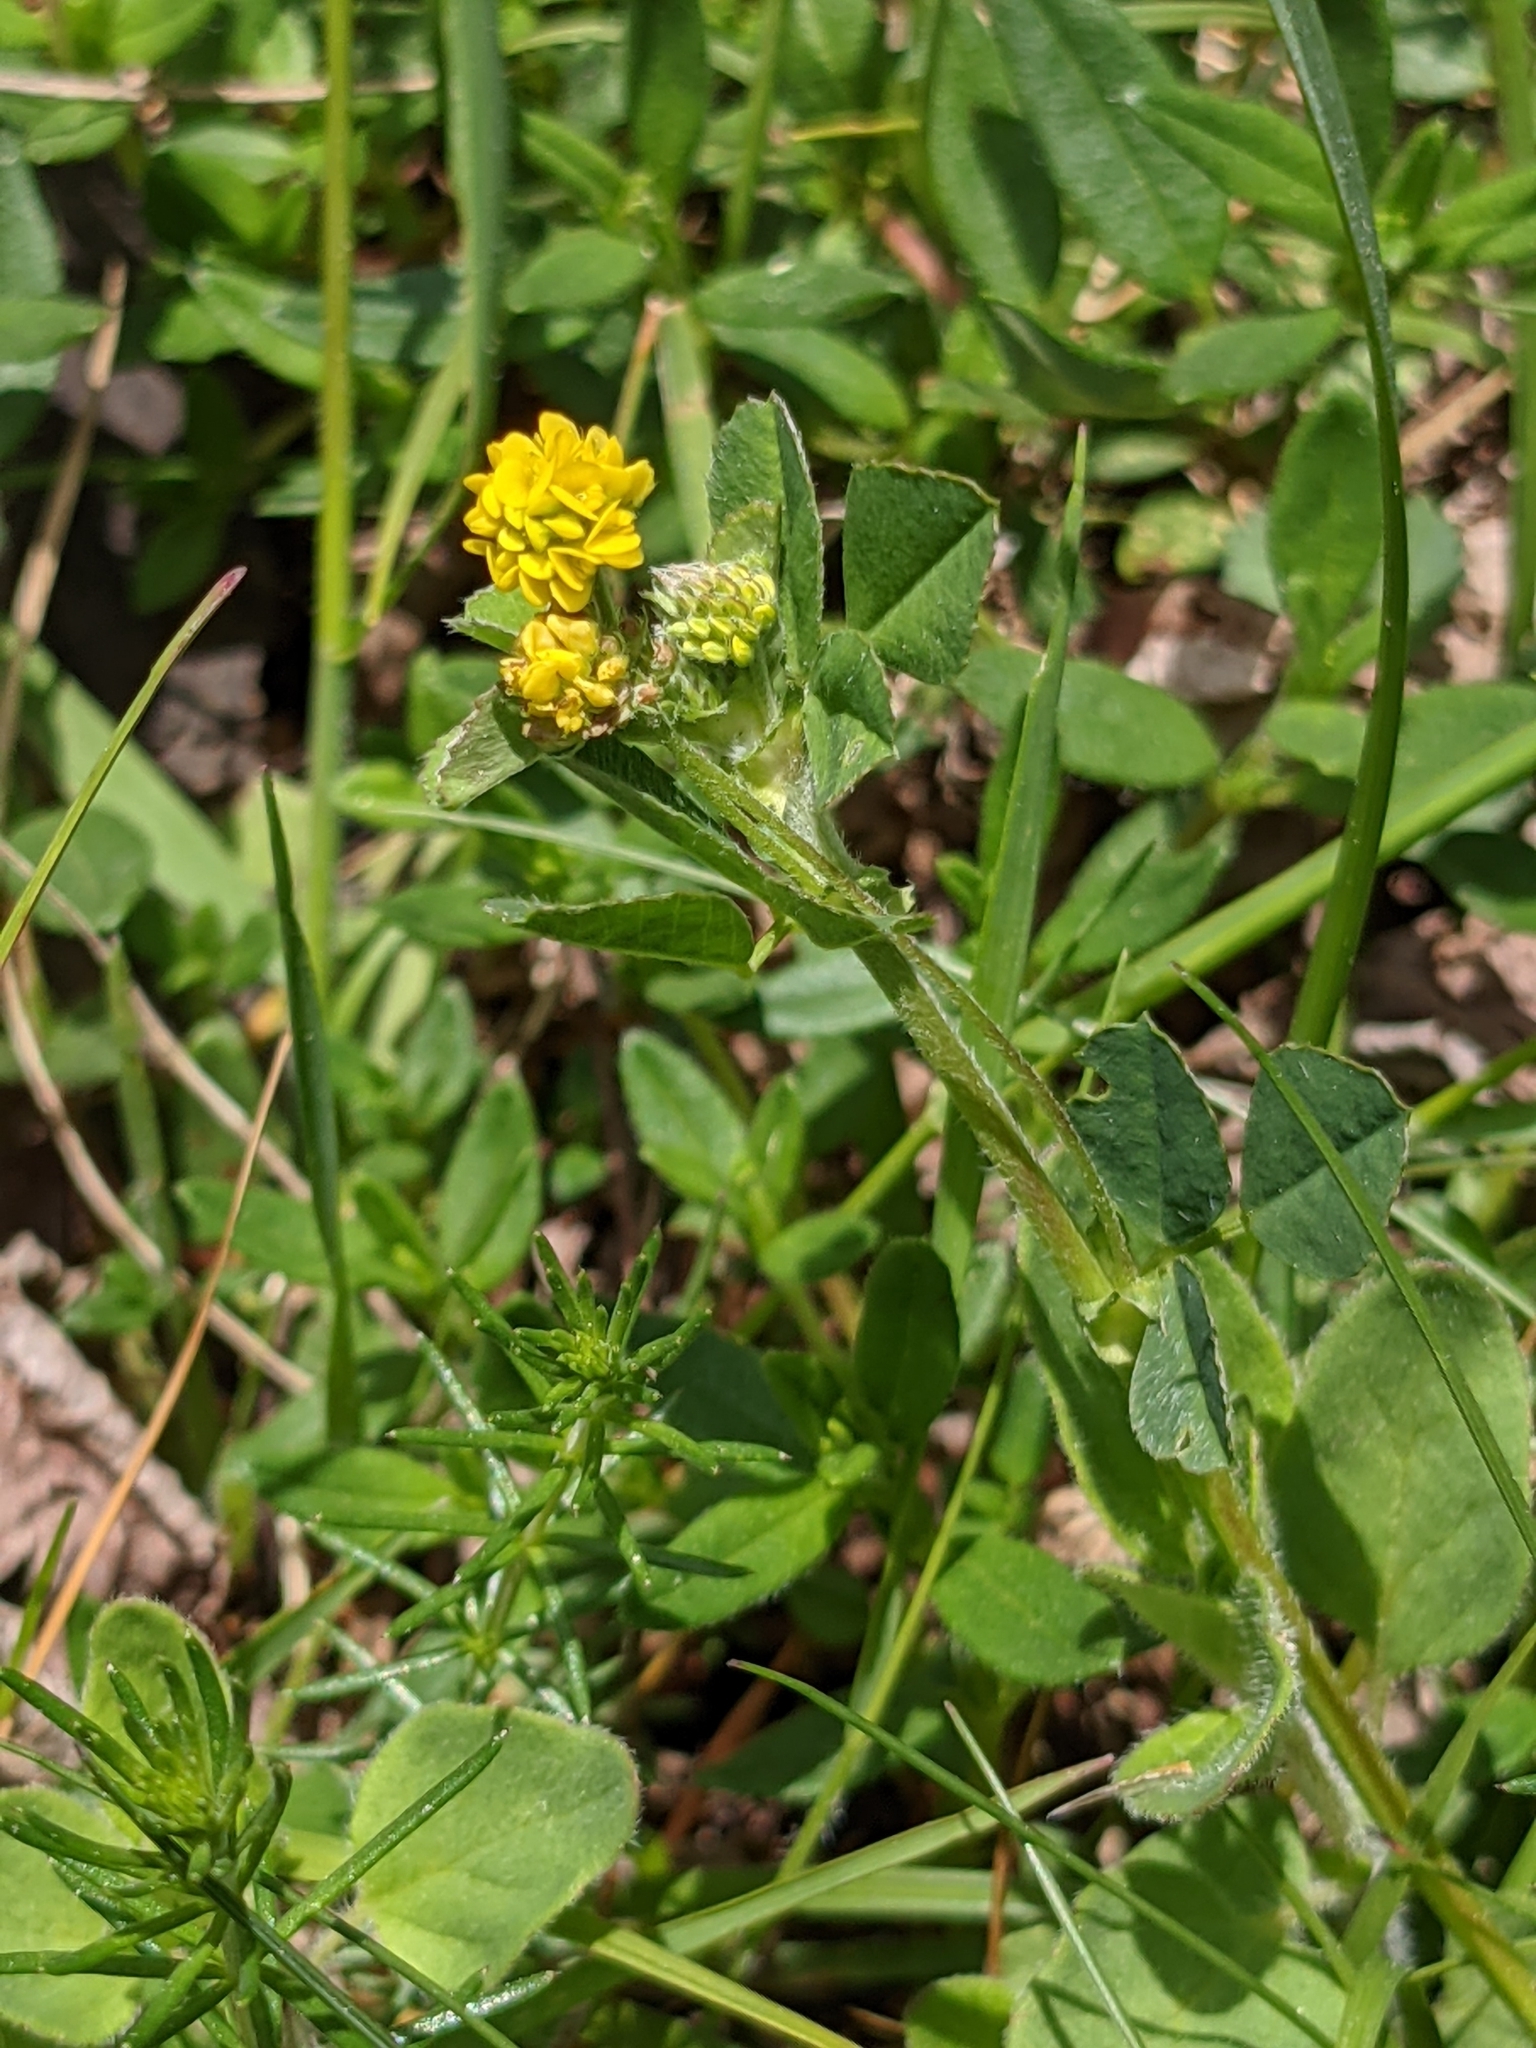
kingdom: Plantae
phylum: Tracheophyta
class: Magnoliopsida
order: Fabales
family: Fabaceae
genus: Medicago
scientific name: Medicago lupulina
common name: Black medick
